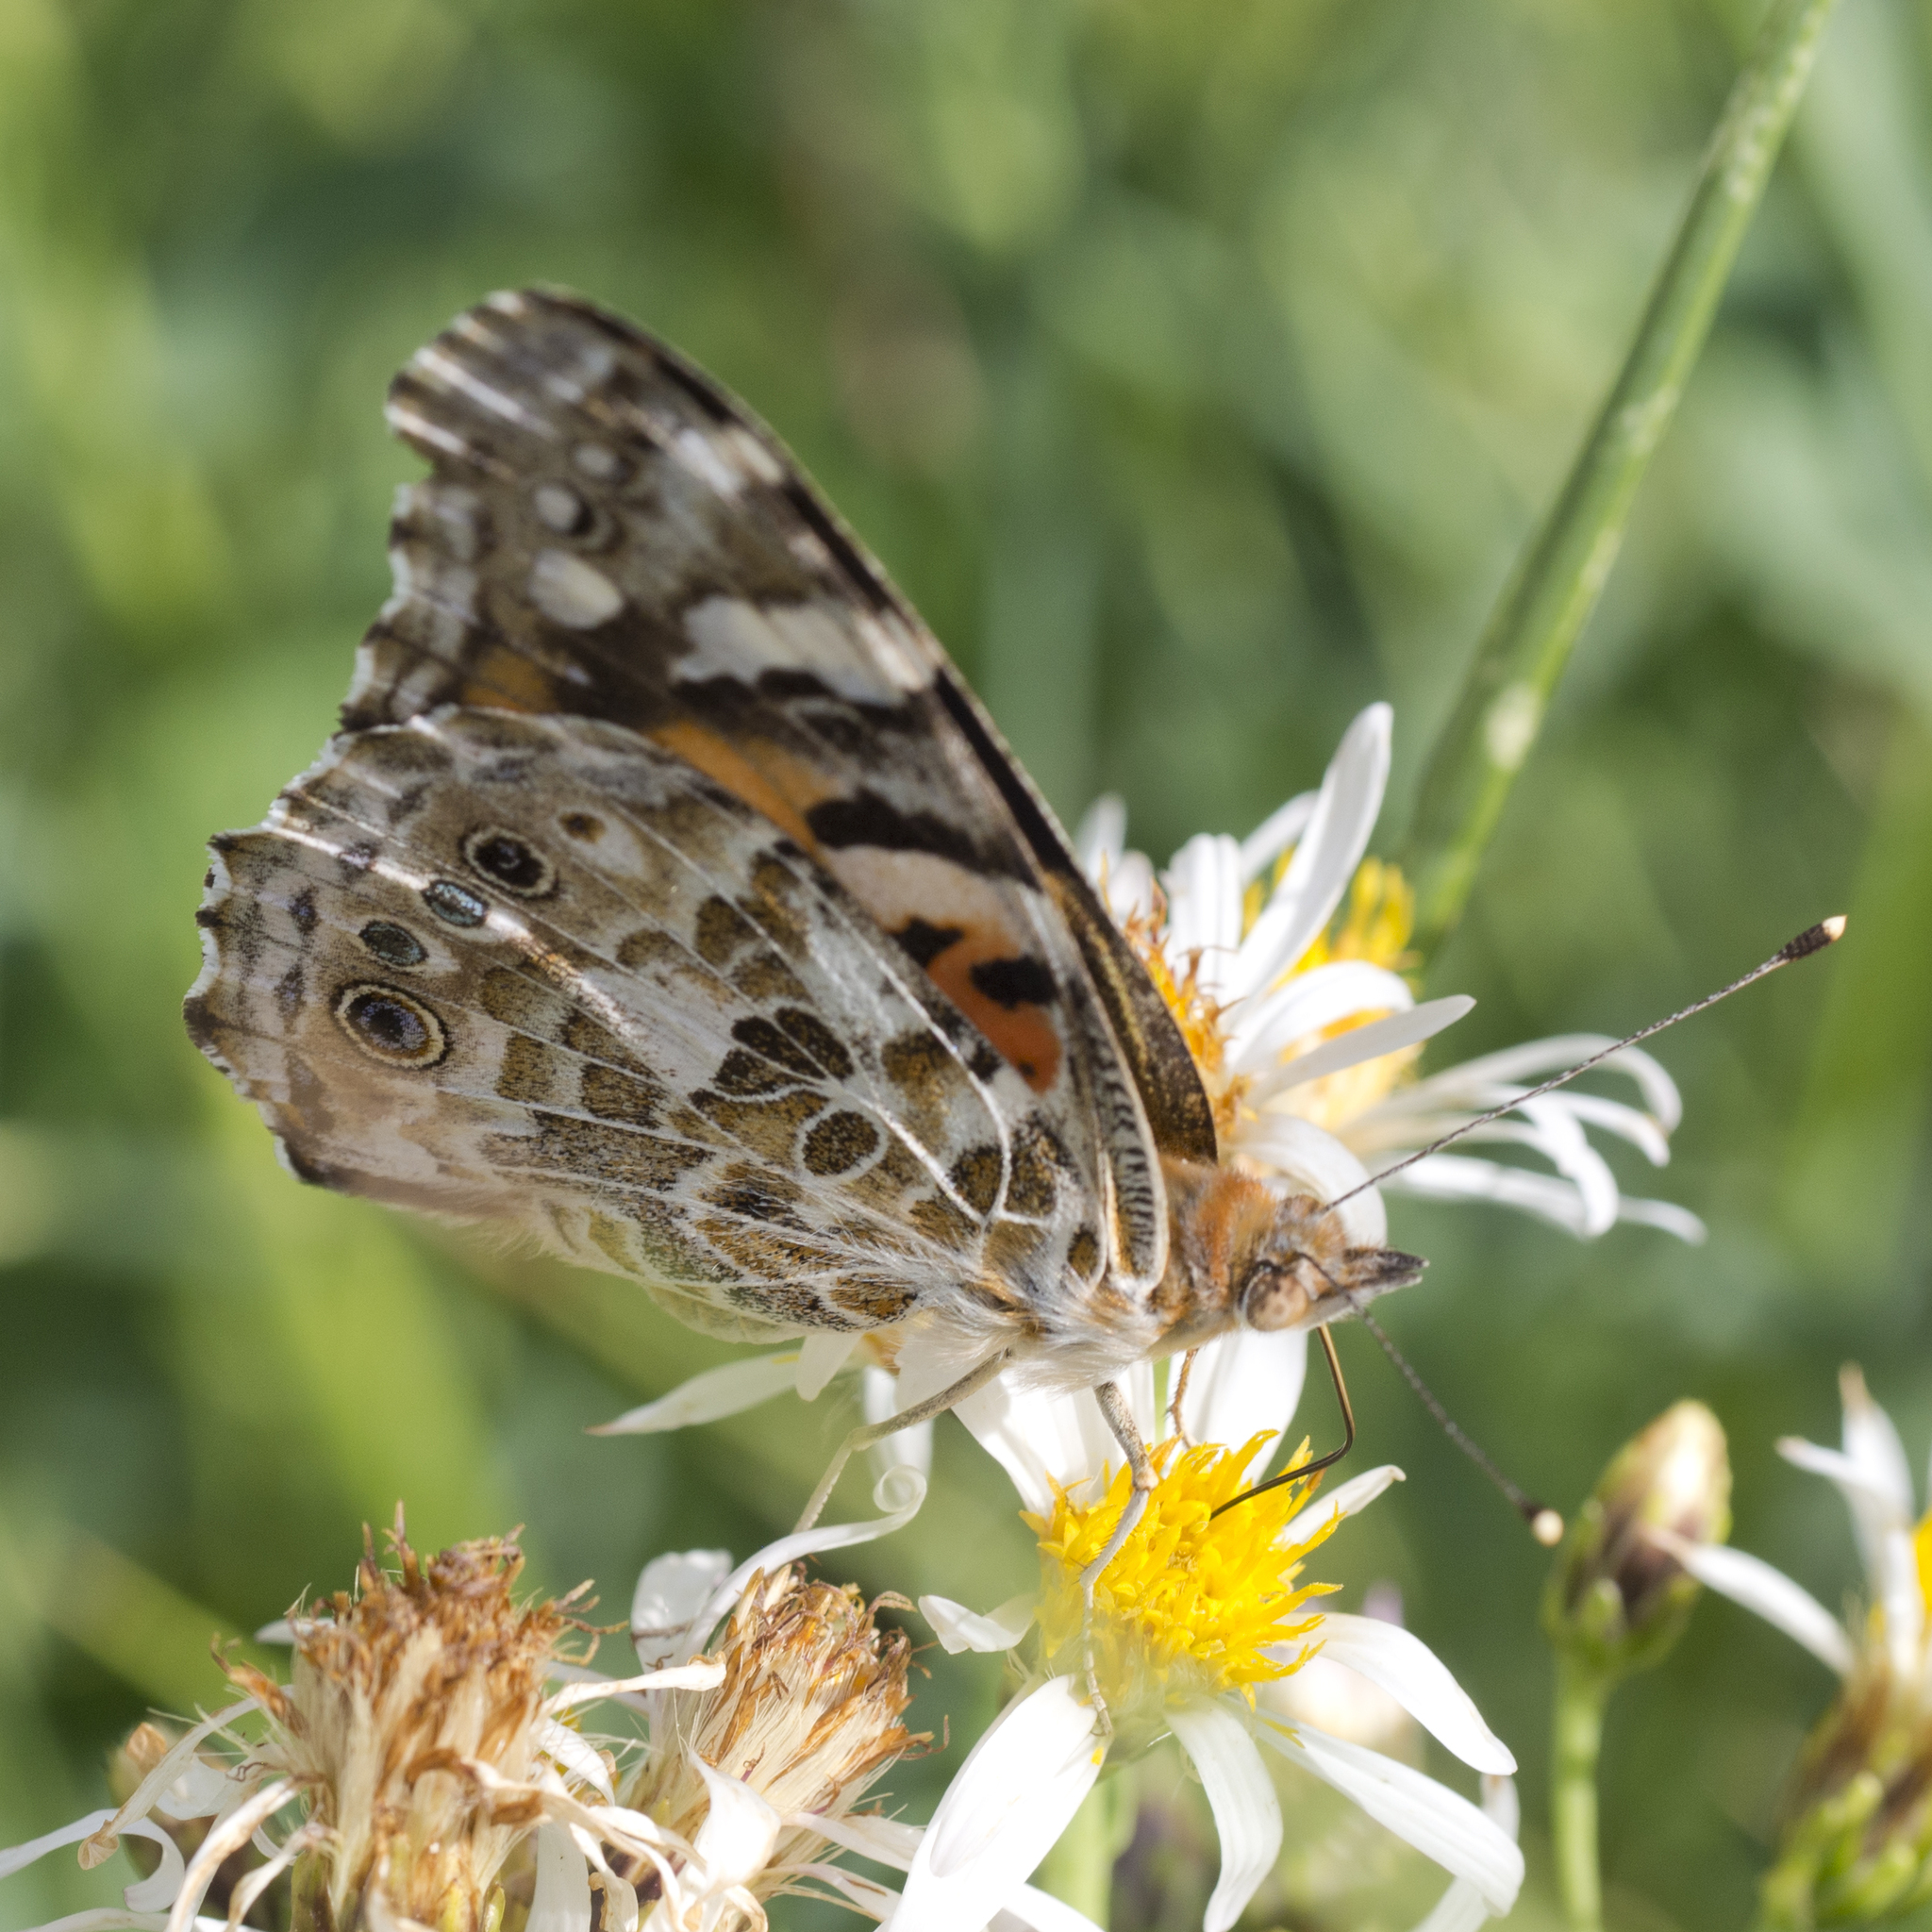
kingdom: Animalia
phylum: Arthropoda
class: Insecta
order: Lepidoptera
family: Nymphalidae
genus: Vanessa
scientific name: Vanessa cardui
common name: Painted lady
